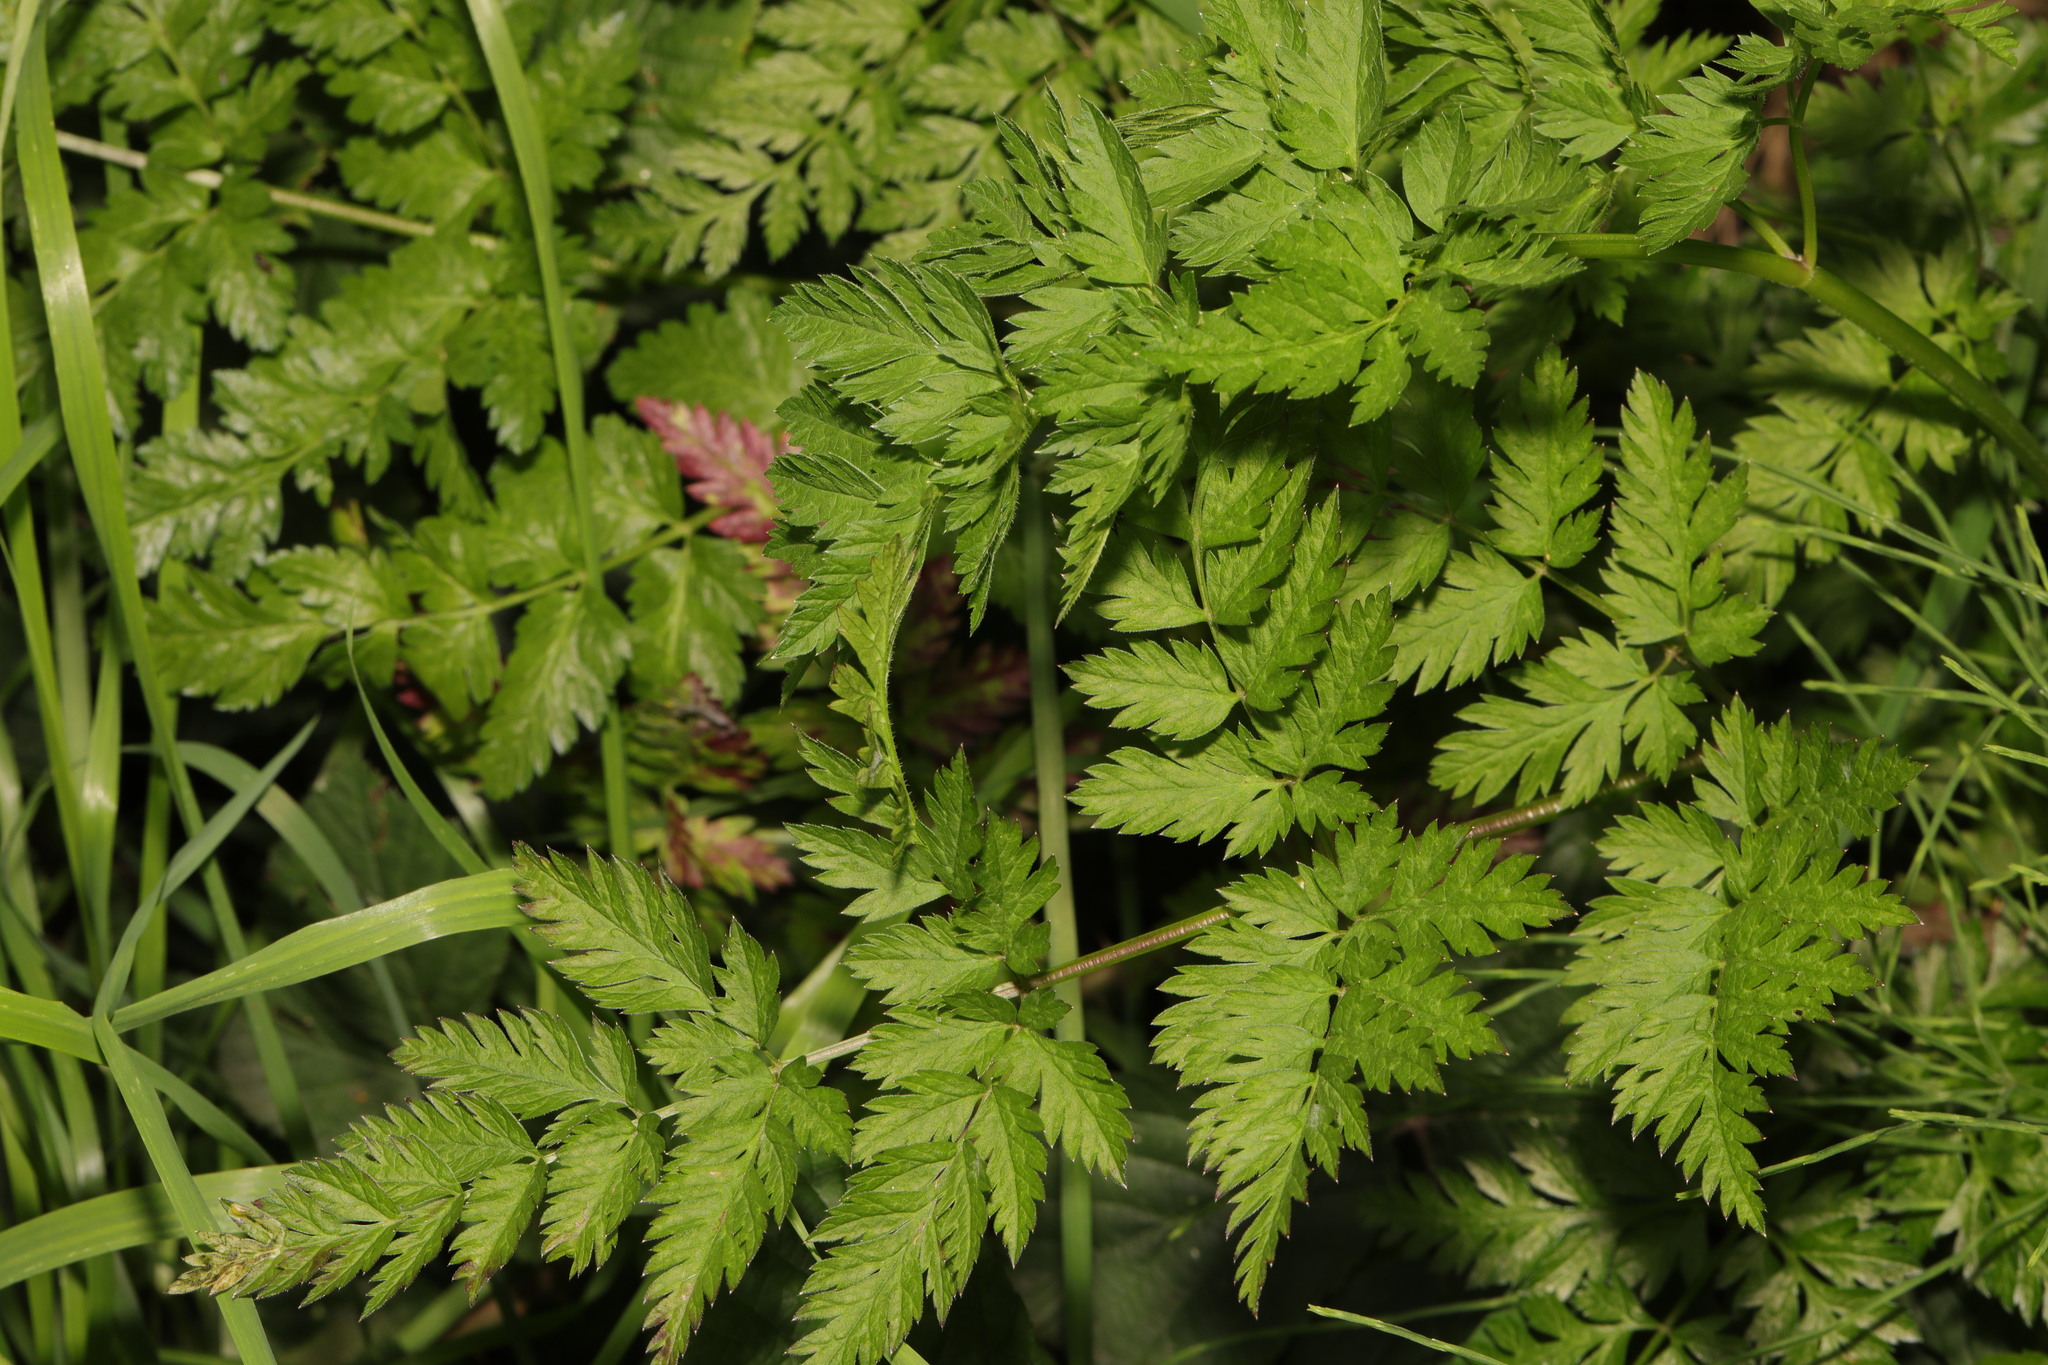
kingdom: Plantae
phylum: Tracheophyta
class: Magnoliopsida
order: Apiales
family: Apiaceae
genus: Anthriscus
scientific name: Anthriscus sylvestris
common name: Cow parsley
